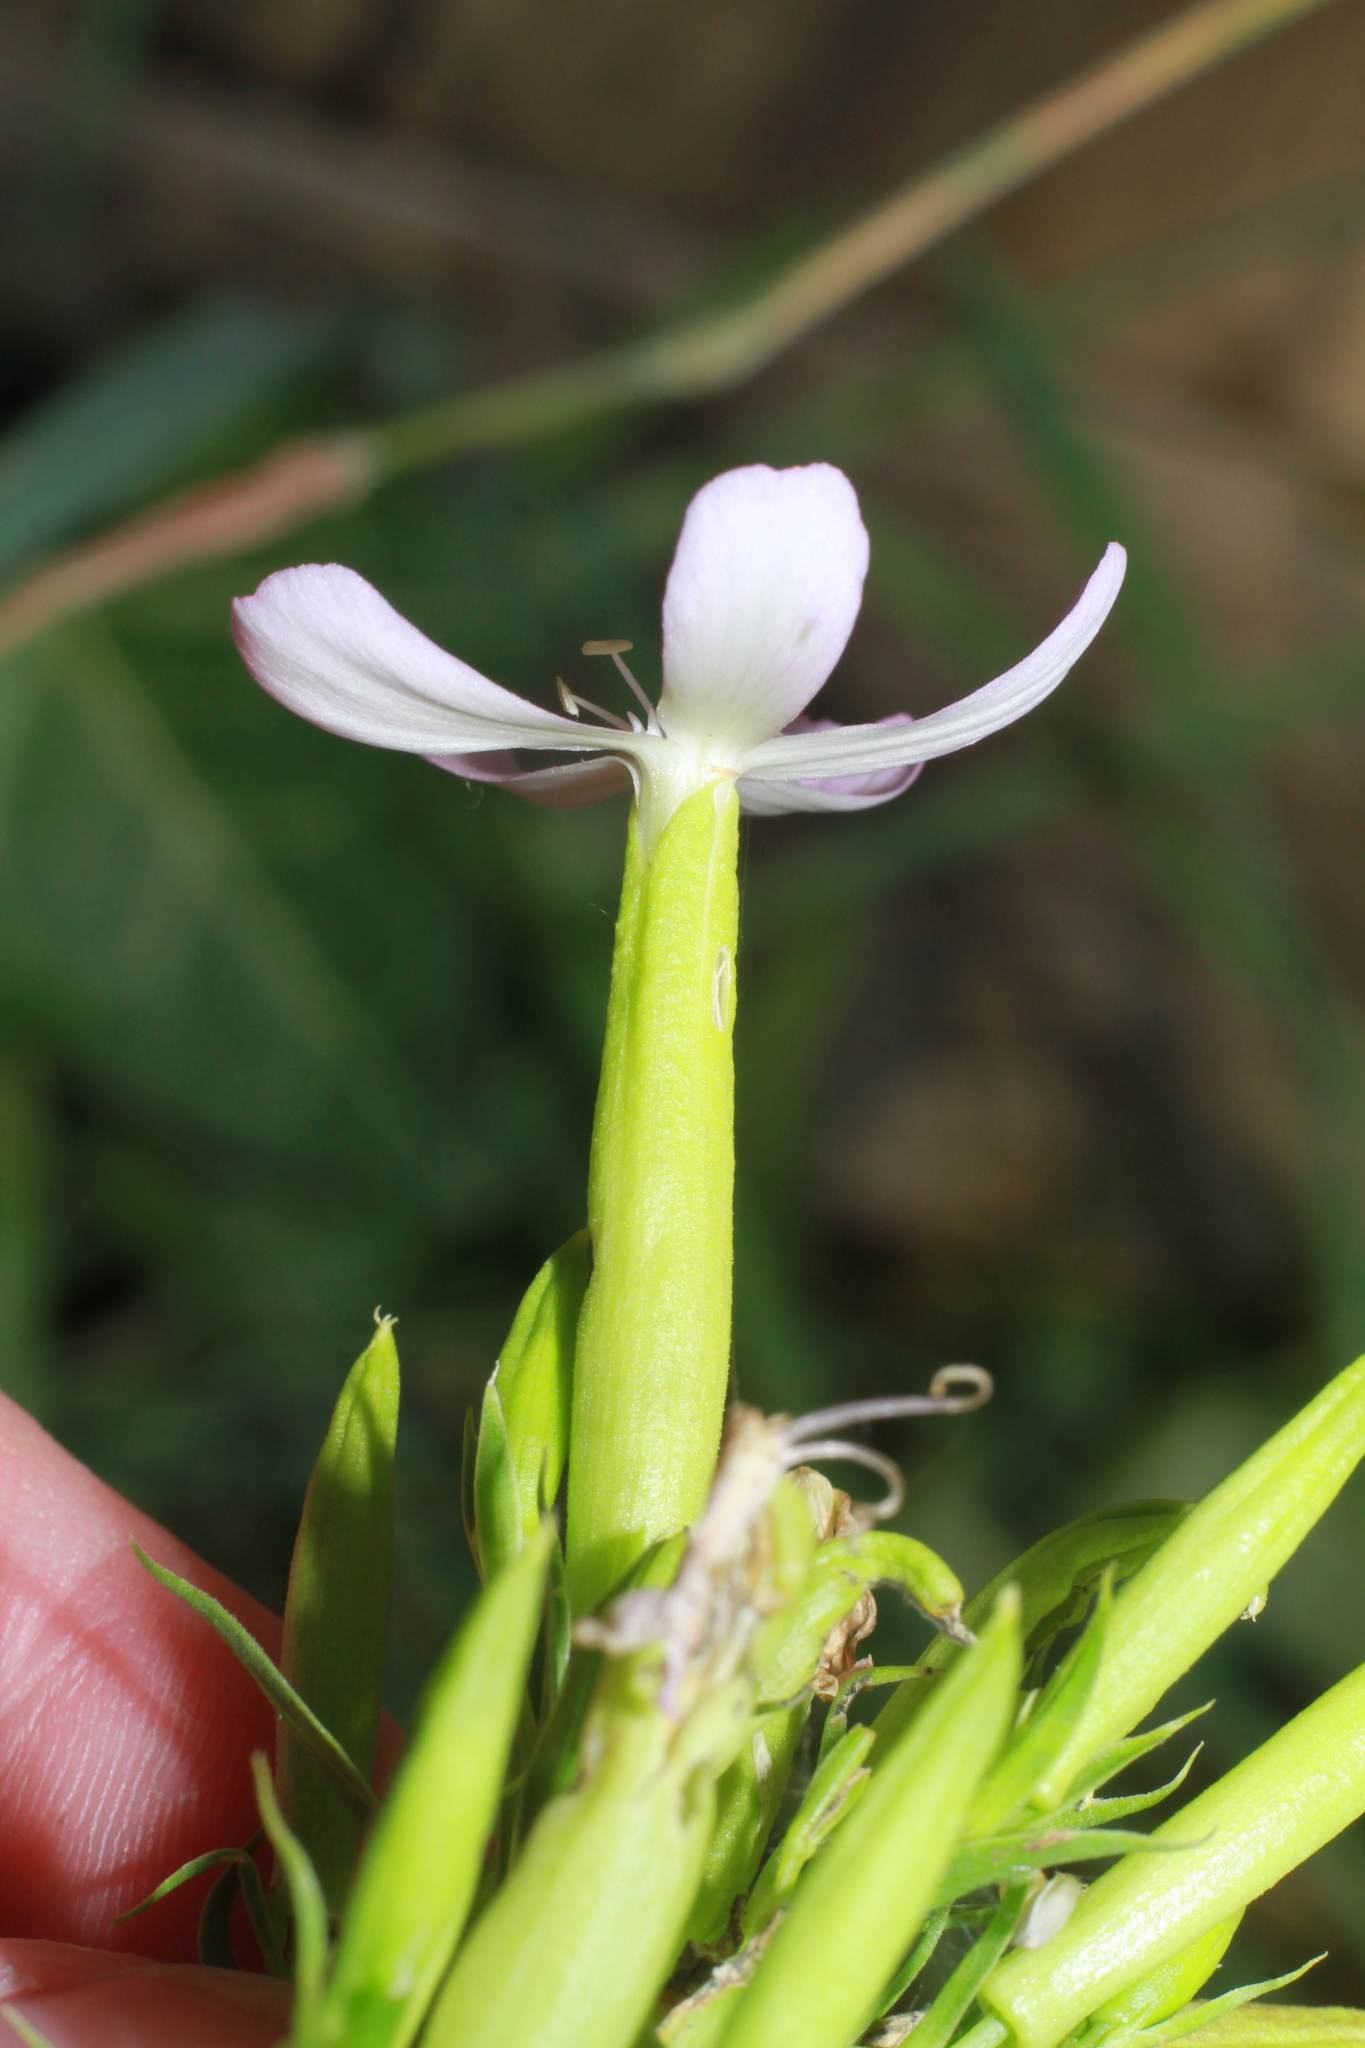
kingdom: Plantae
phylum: Tracheophyta
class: Magnoliopsida
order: Caryophyllales
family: Caryophyllaceae
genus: Saponaria
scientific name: Saponaria officinalis
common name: Soapwort
